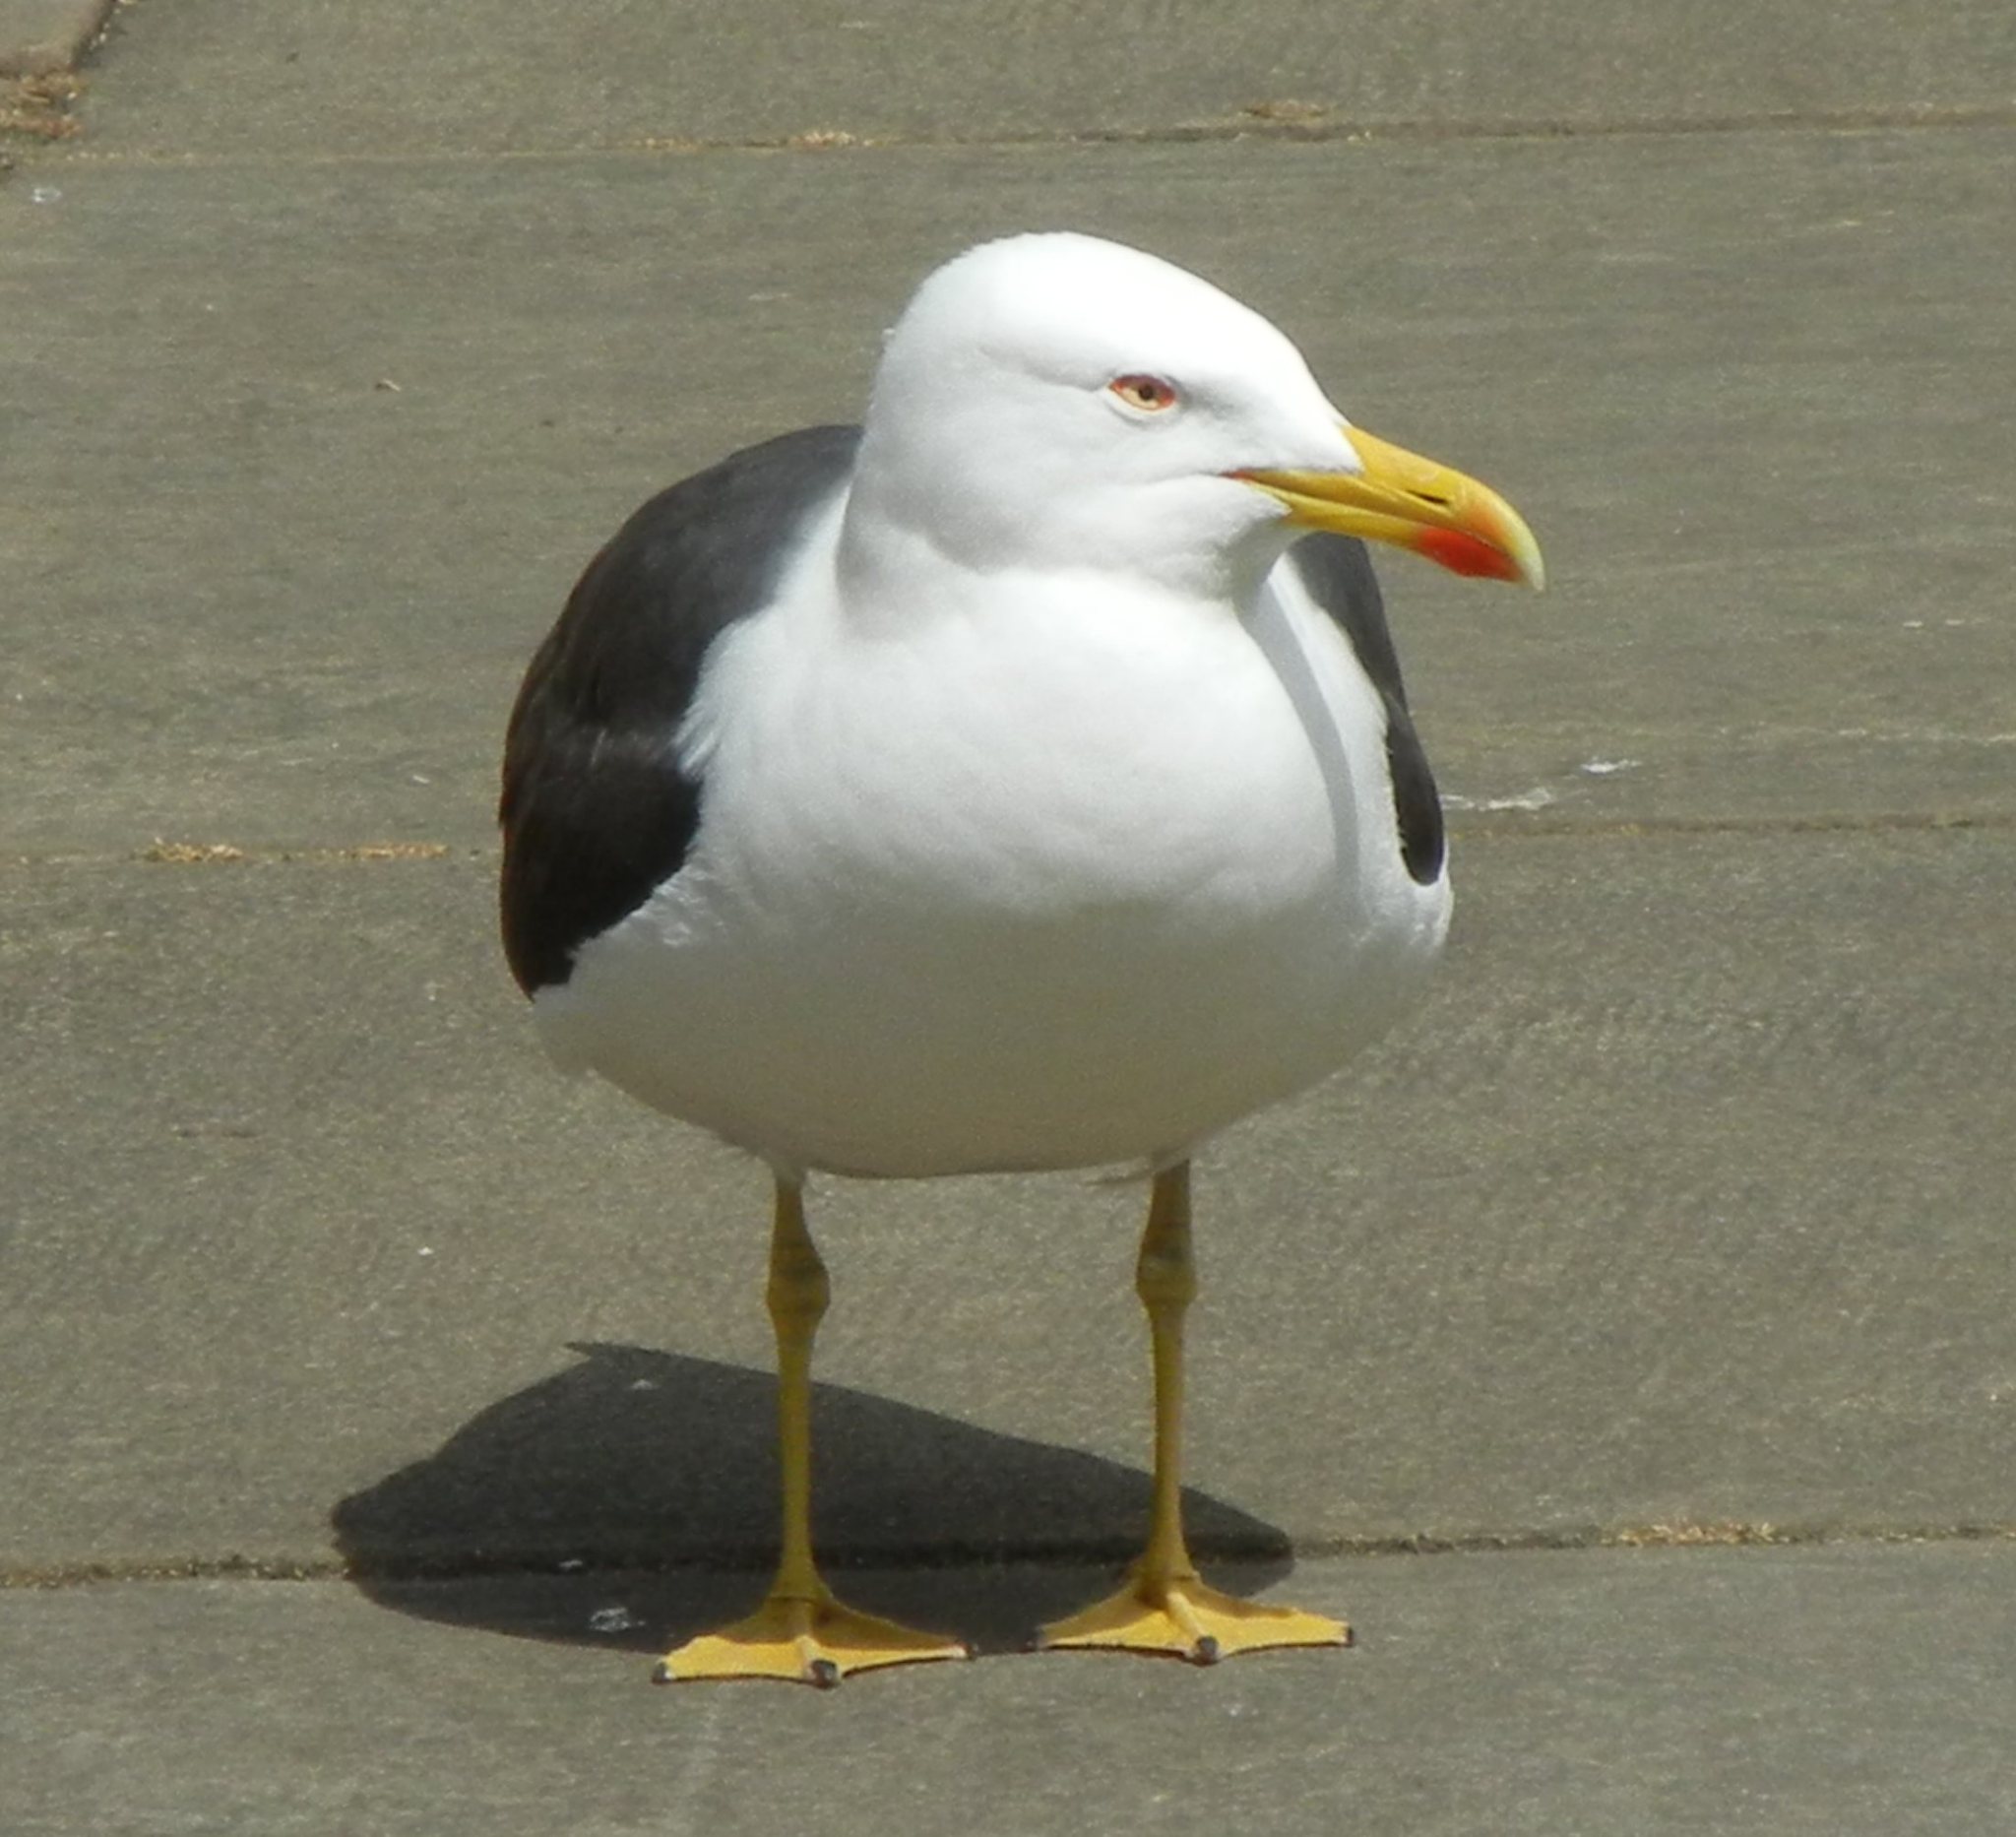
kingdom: Animalia
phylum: Chordata
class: Aves
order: Charadriiformes
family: Laridae
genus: Larus
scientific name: Larus fuscus
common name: Lesser black-backed gull
